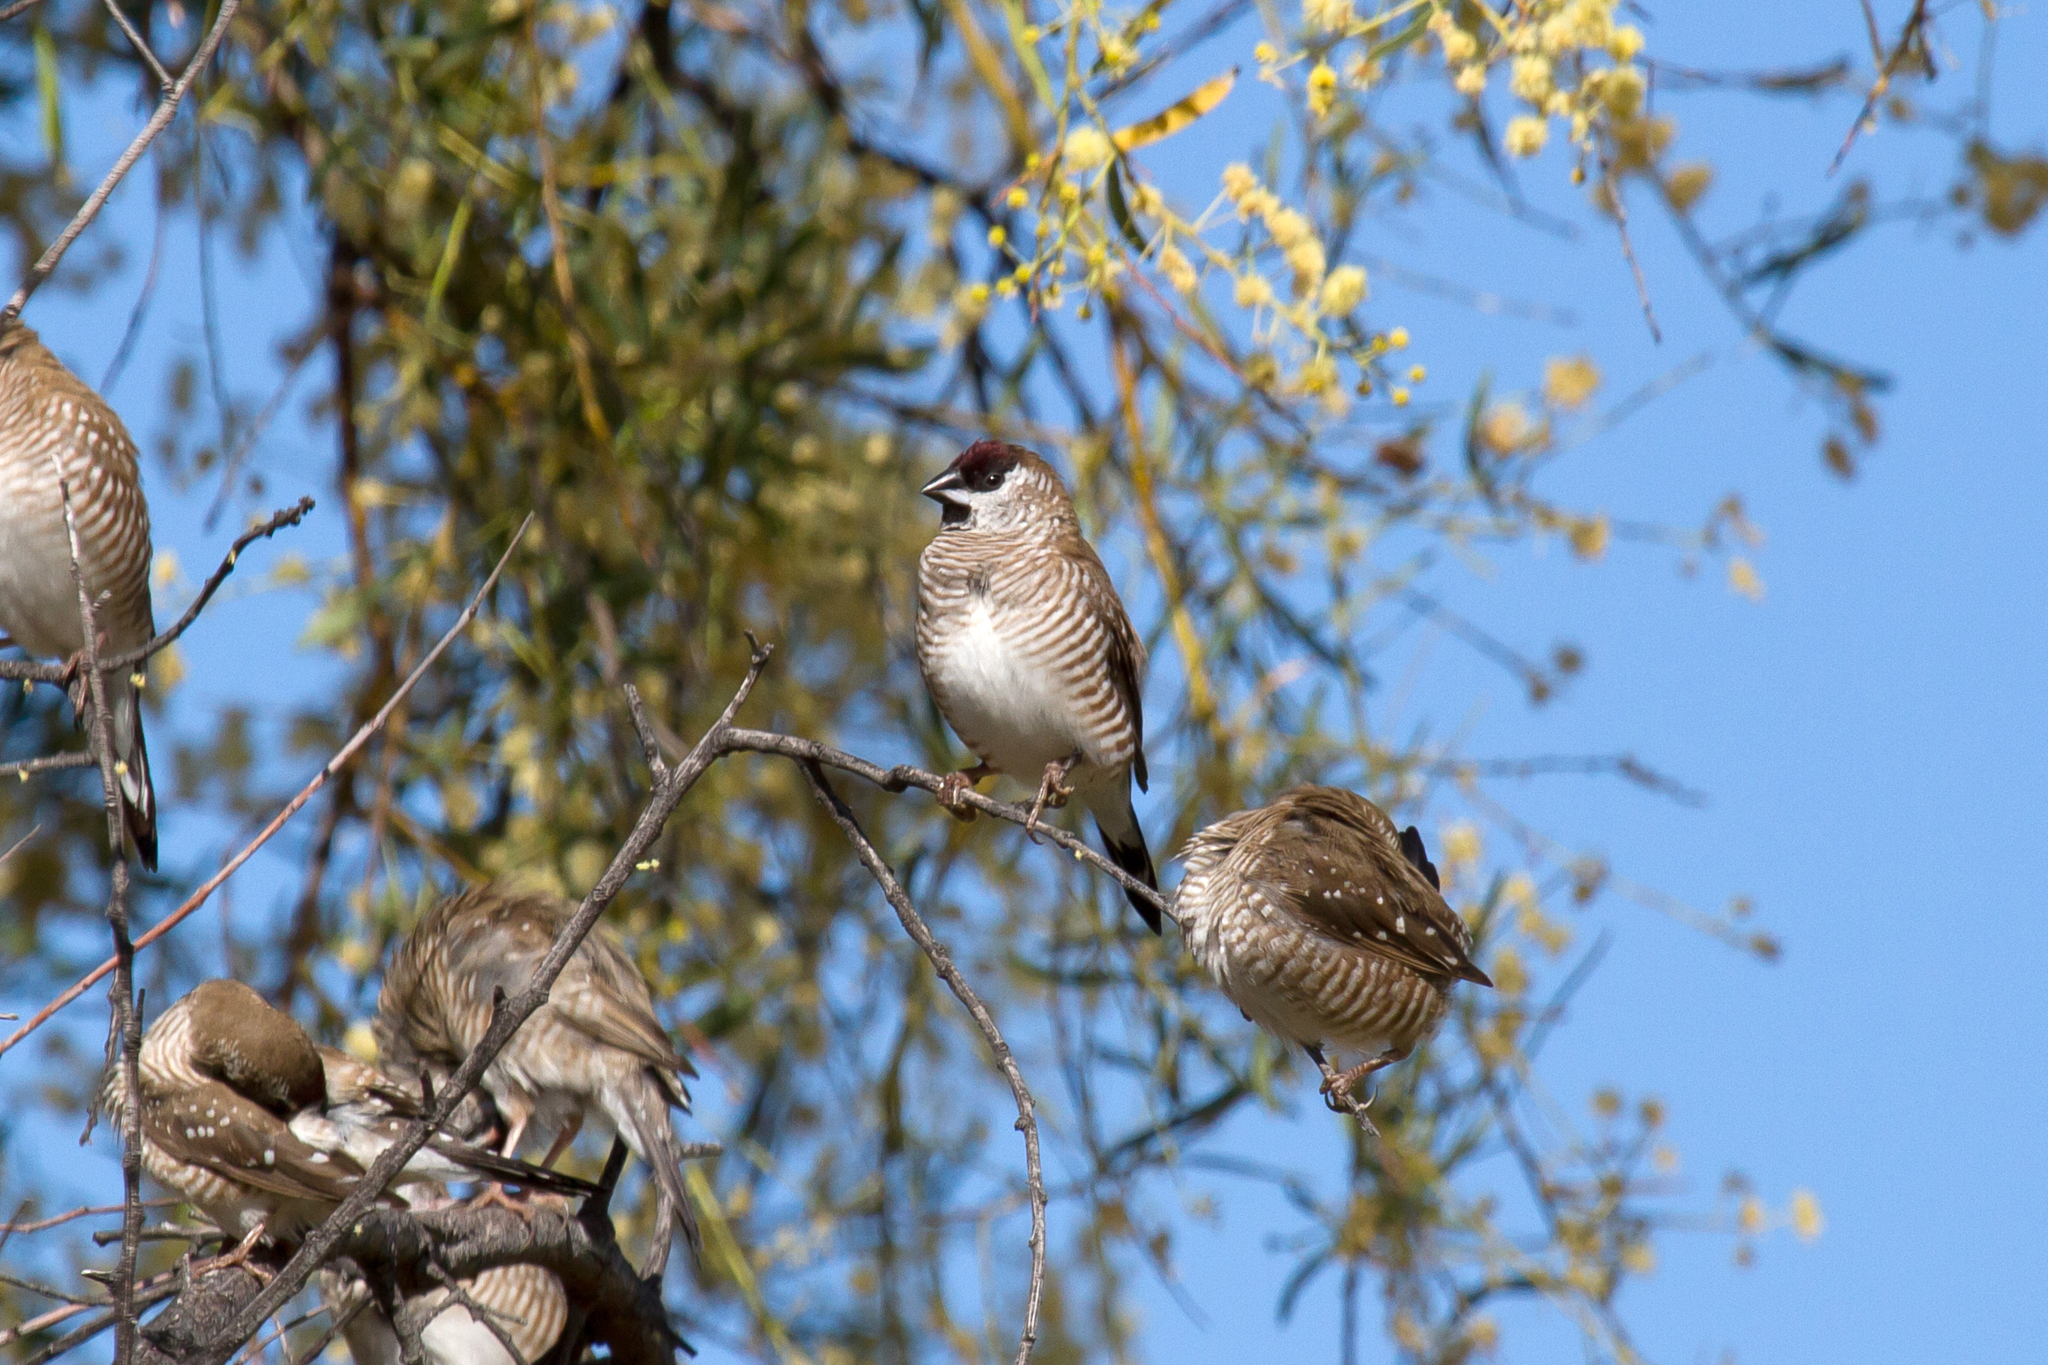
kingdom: Animalia
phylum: Chordata
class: Aves
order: Passeriformes
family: Estrildidae
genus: Neochmia
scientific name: Neochmia modesta
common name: Plum-headed finch
